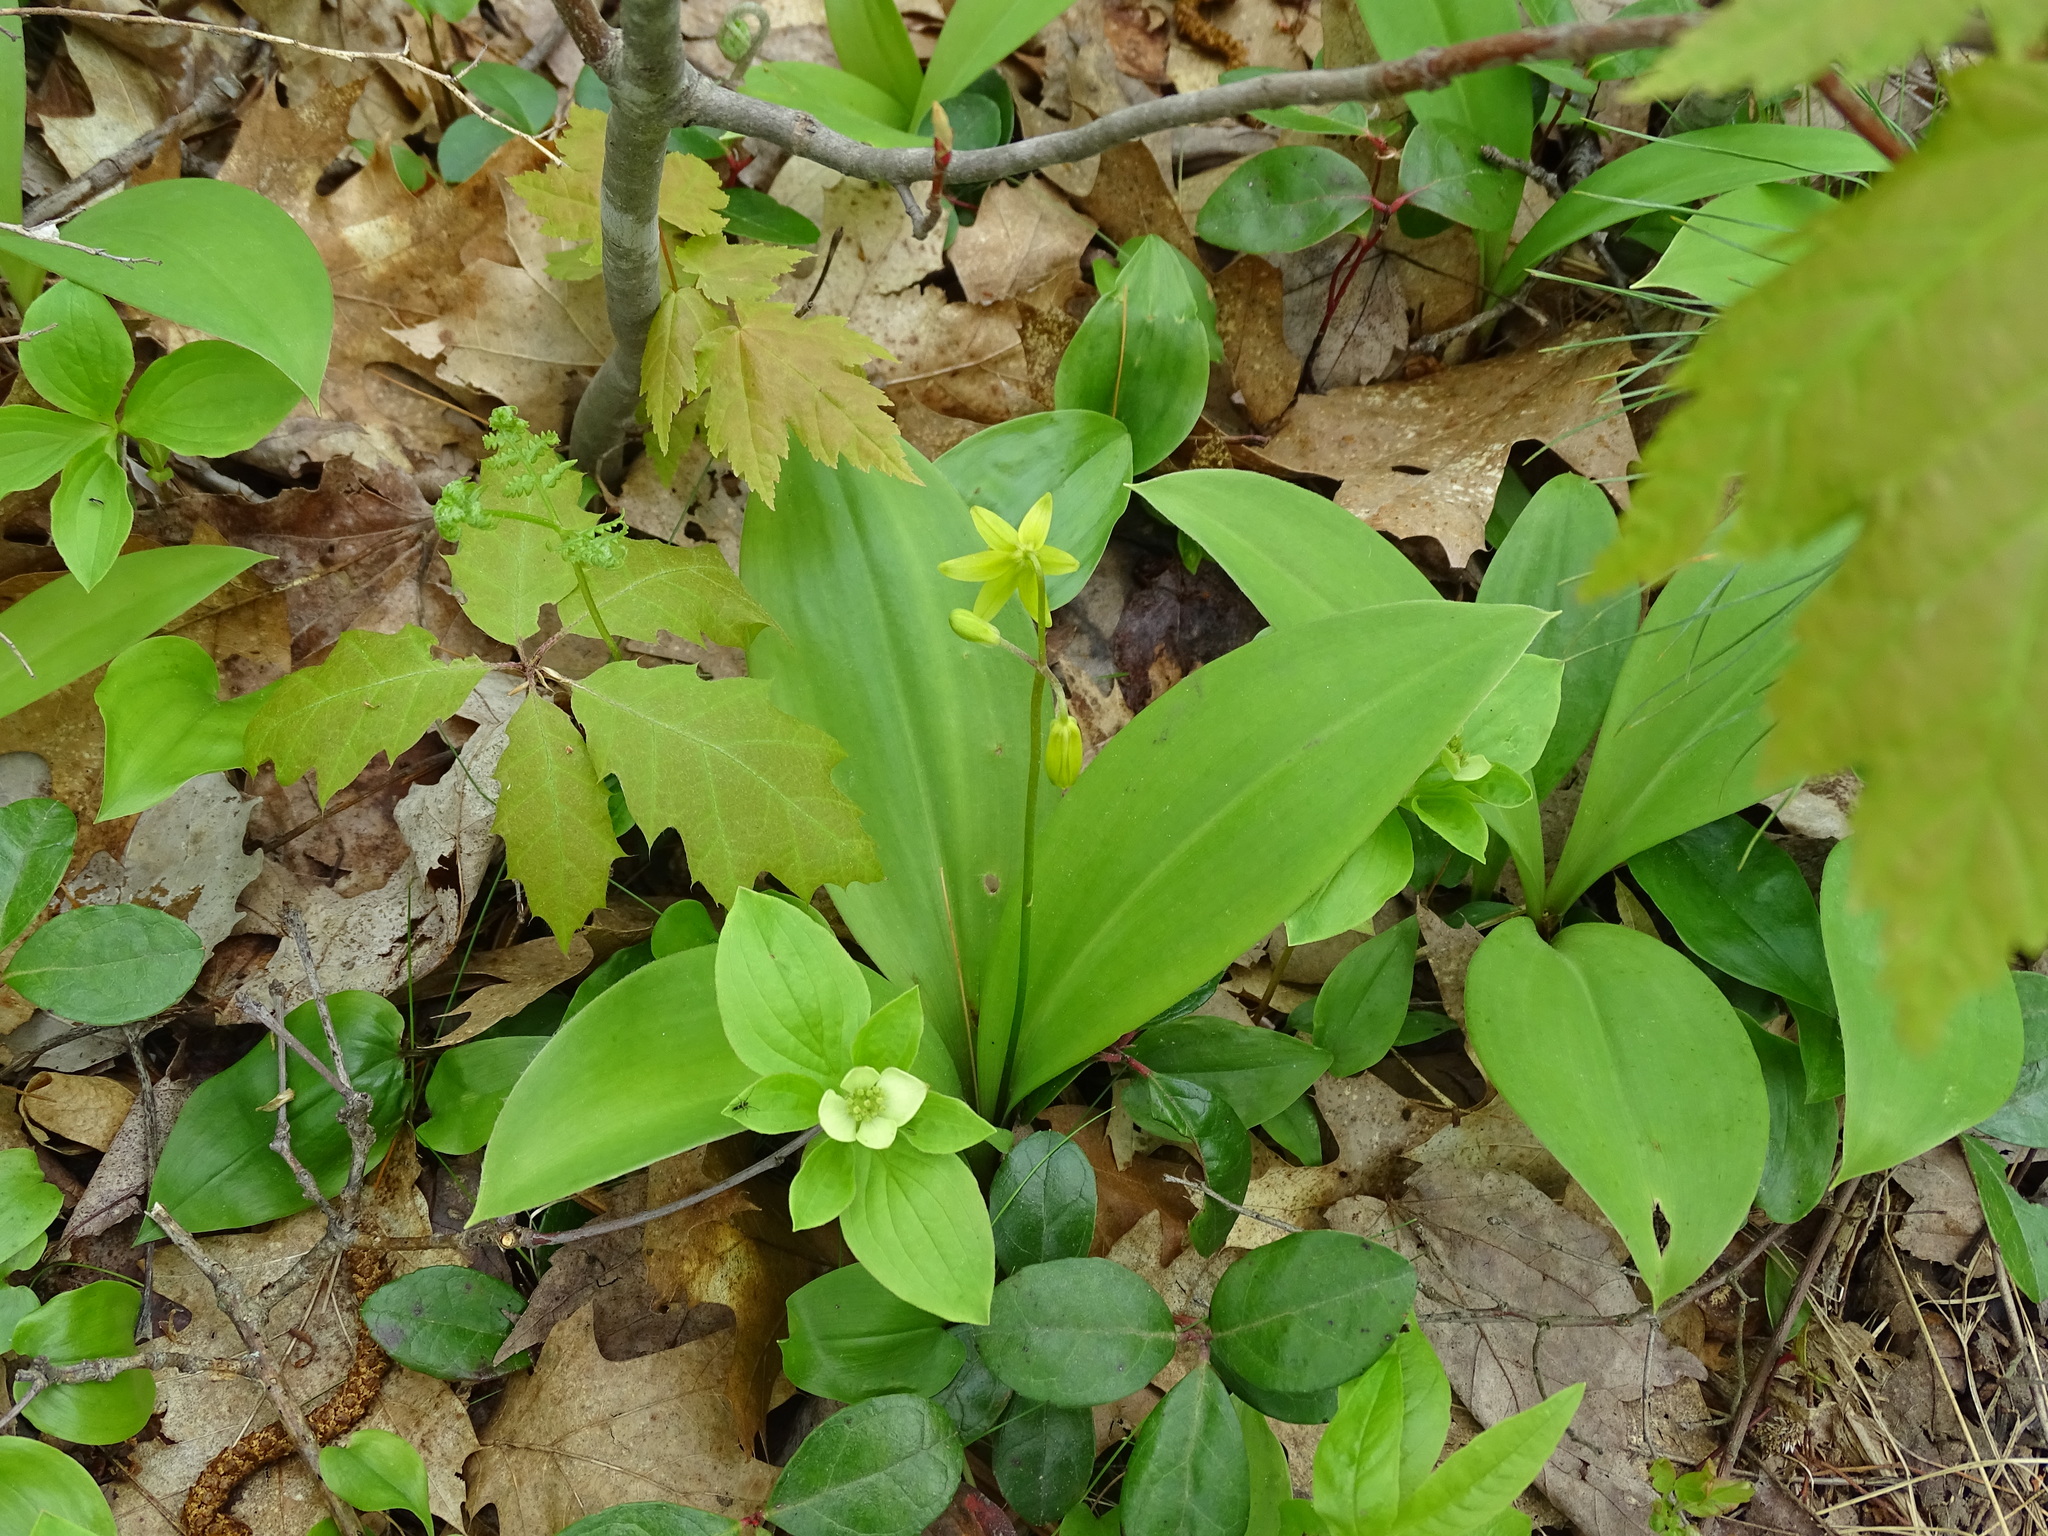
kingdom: Plantae
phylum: Tracheophyta
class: Liliopsida
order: Liliales
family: Liliaceae
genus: Clintonia
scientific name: Clintonia borealis
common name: Yellow clintonia
